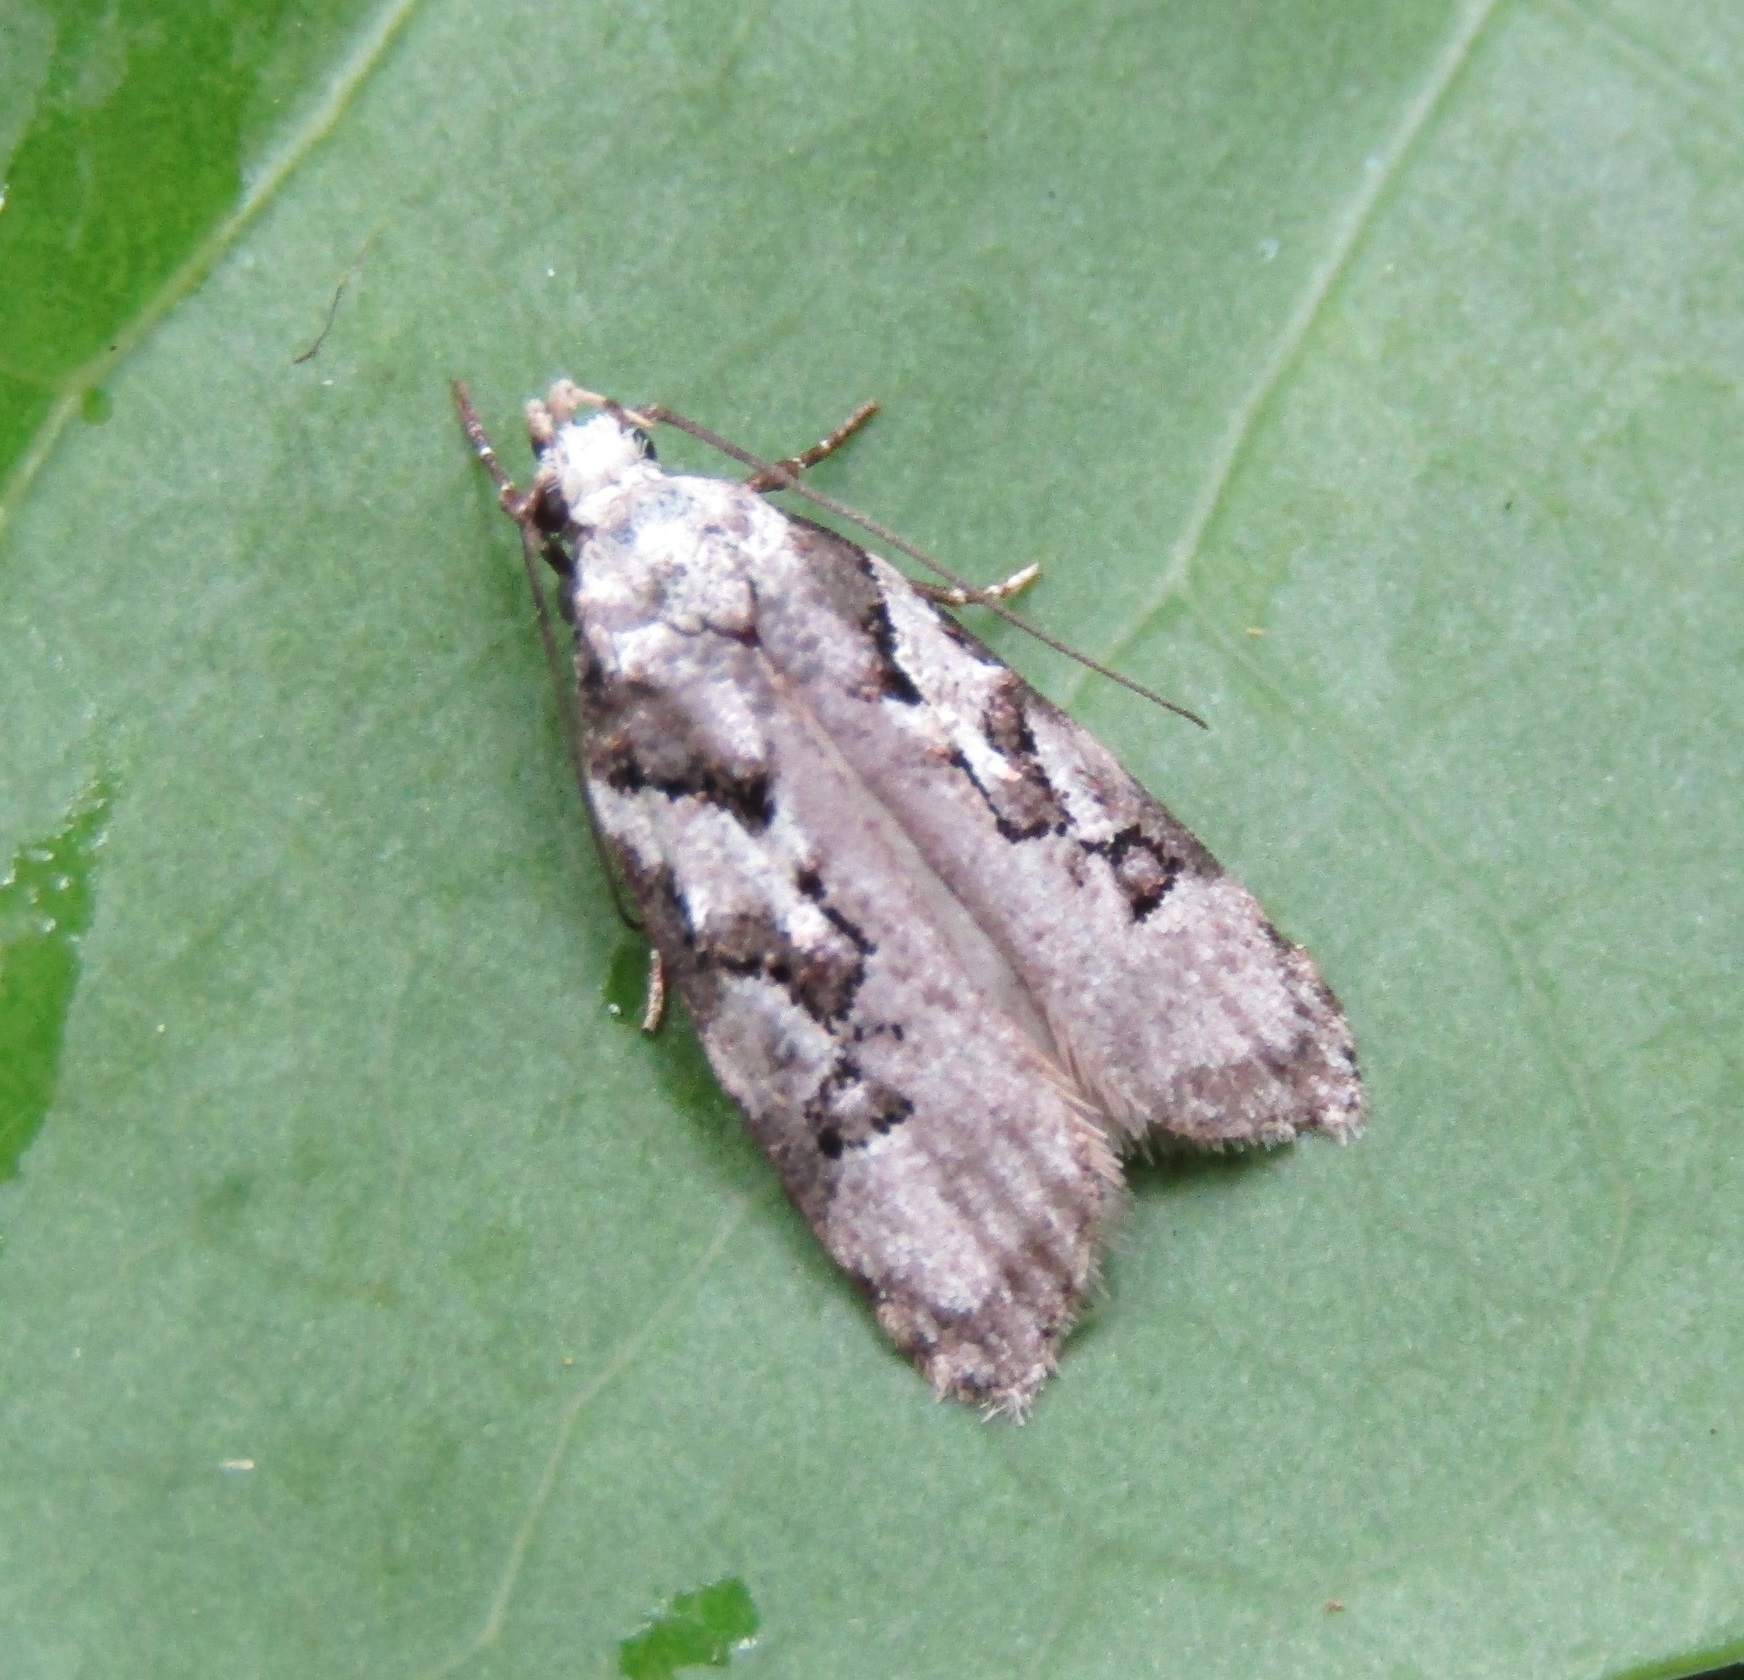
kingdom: Animalia
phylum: Arthropoda
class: Insecta
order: Lepidoptera
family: Oecophoridae
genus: Izatha
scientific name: Izatha epiphanes
